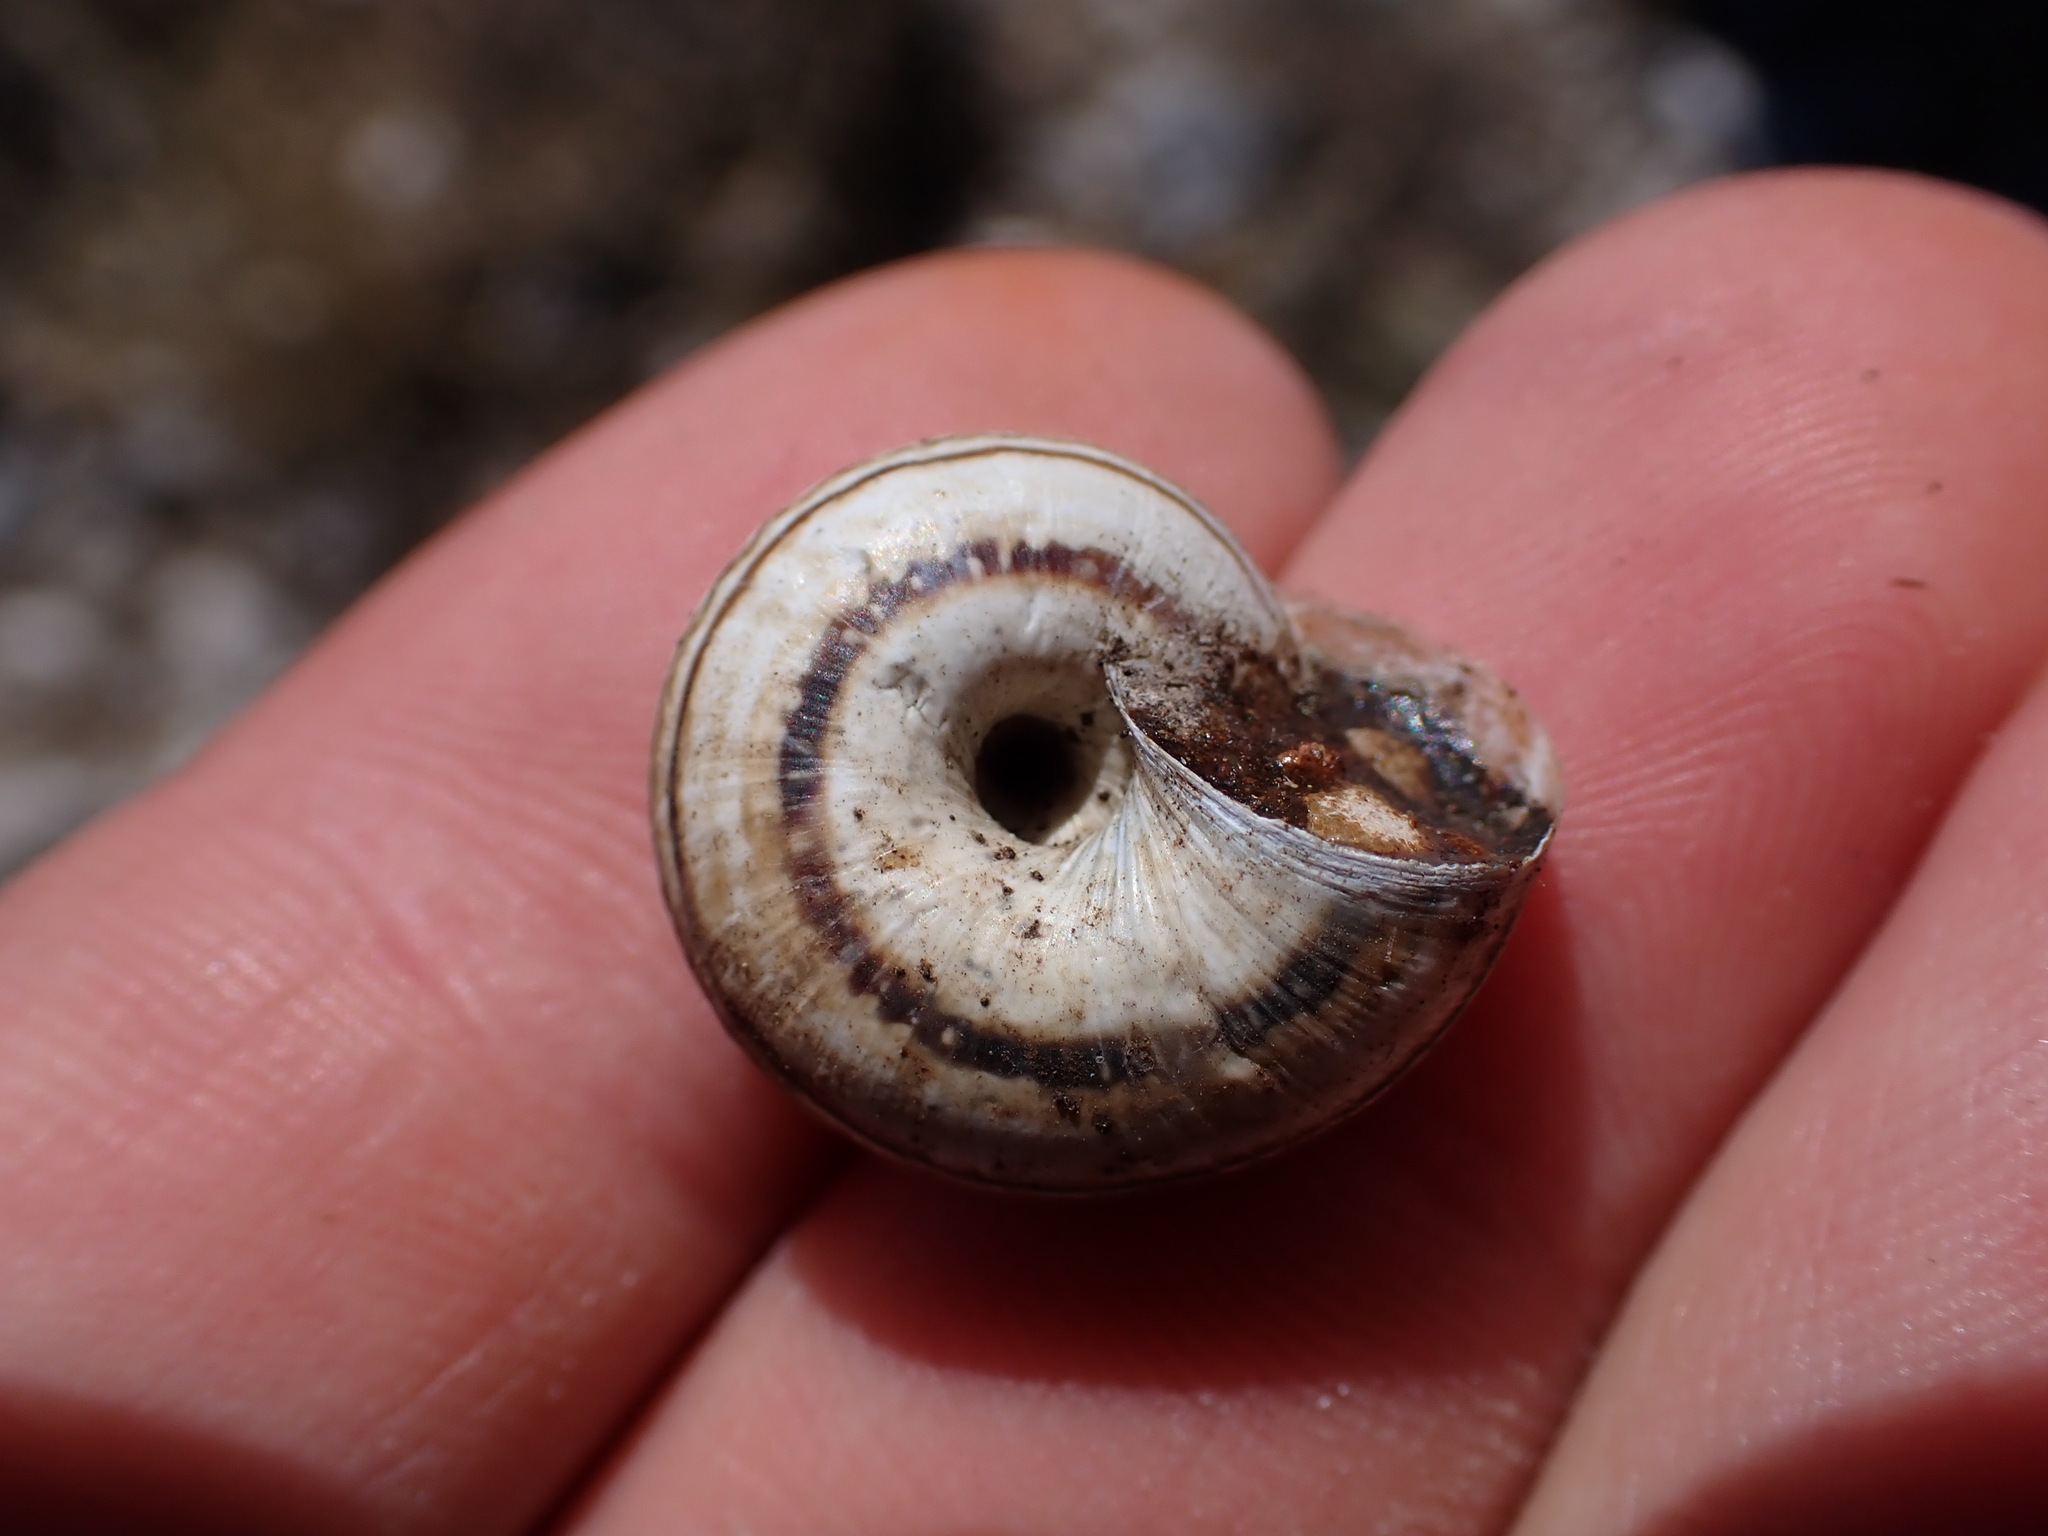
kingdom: Animalia
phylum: Mollusca
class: Gastropoda
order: Stylommatophora
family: Geomitridae
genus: Xerosecta
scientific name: Xerosecta cespitum
